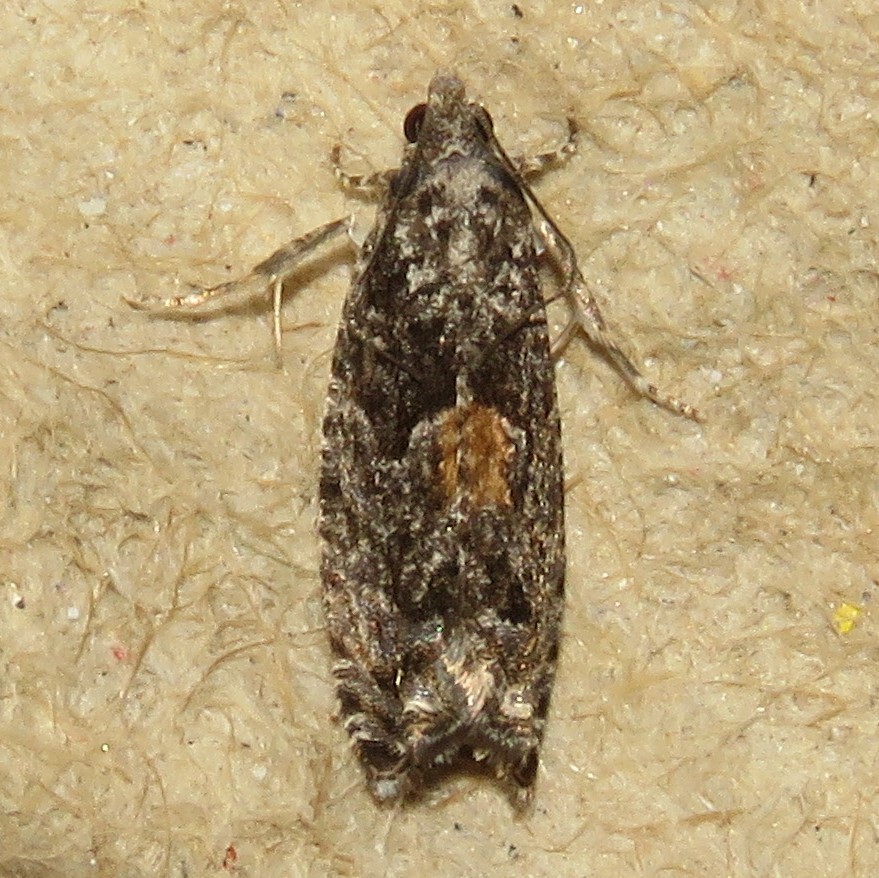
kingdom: Animalia
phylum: Arthropoda
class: Insecta
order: Lepidoptera
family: Tortricidae
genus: Epinotia
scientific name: Epinotia nisella
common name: Grey poplar bell
